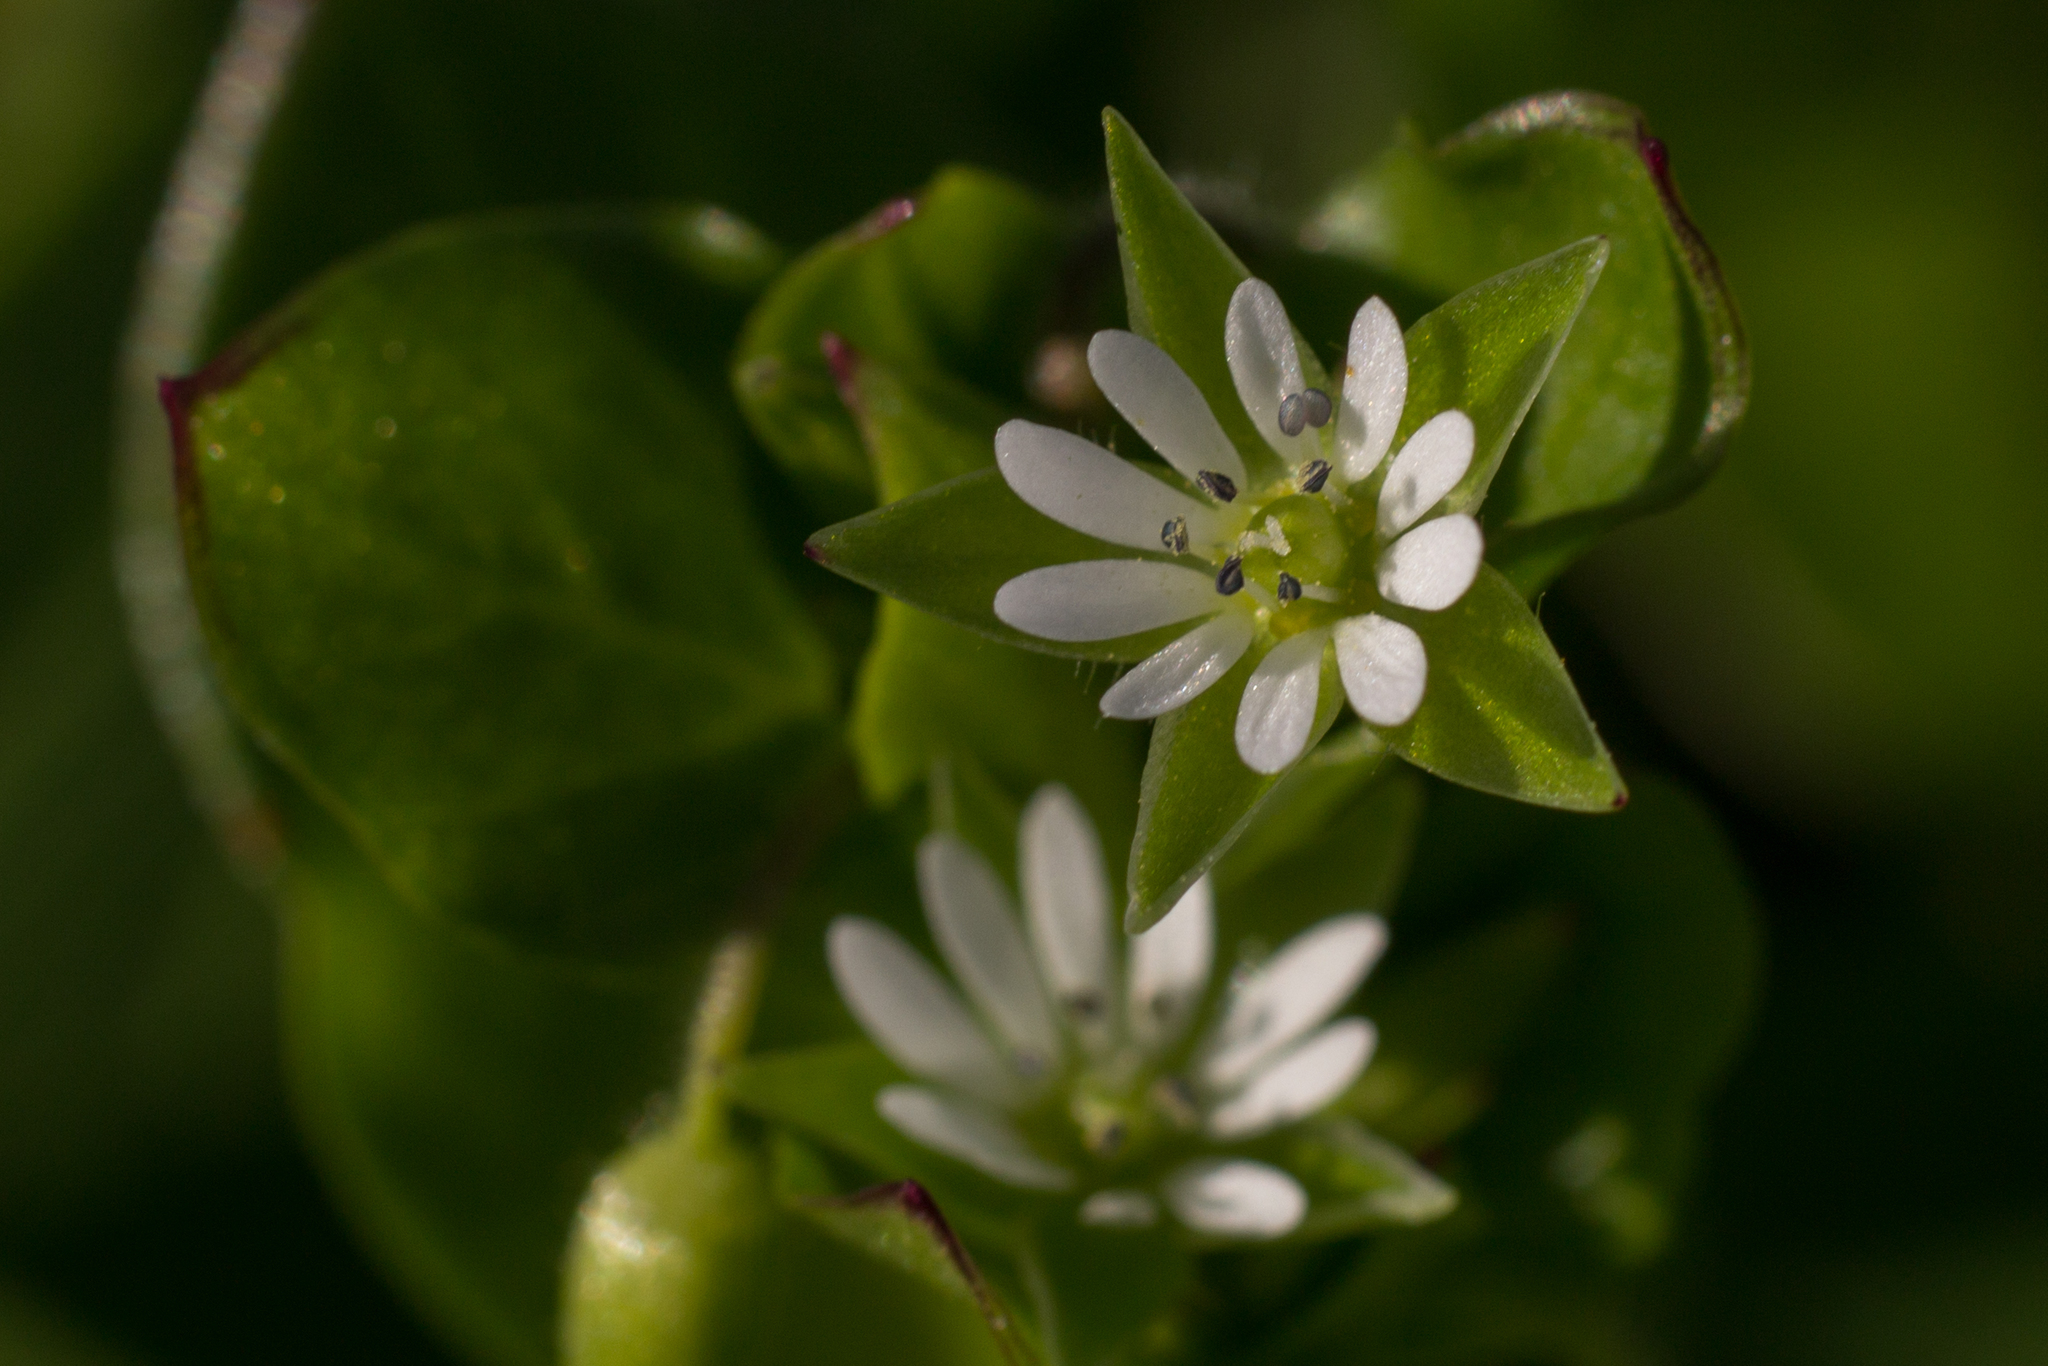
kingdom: Plantae
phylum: Tracheophyta
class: Magnoliopsida
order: Caryophyllales
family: Caryophyllaceae
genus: Stellaria
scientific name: Stellaria media
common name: Common chickweed
